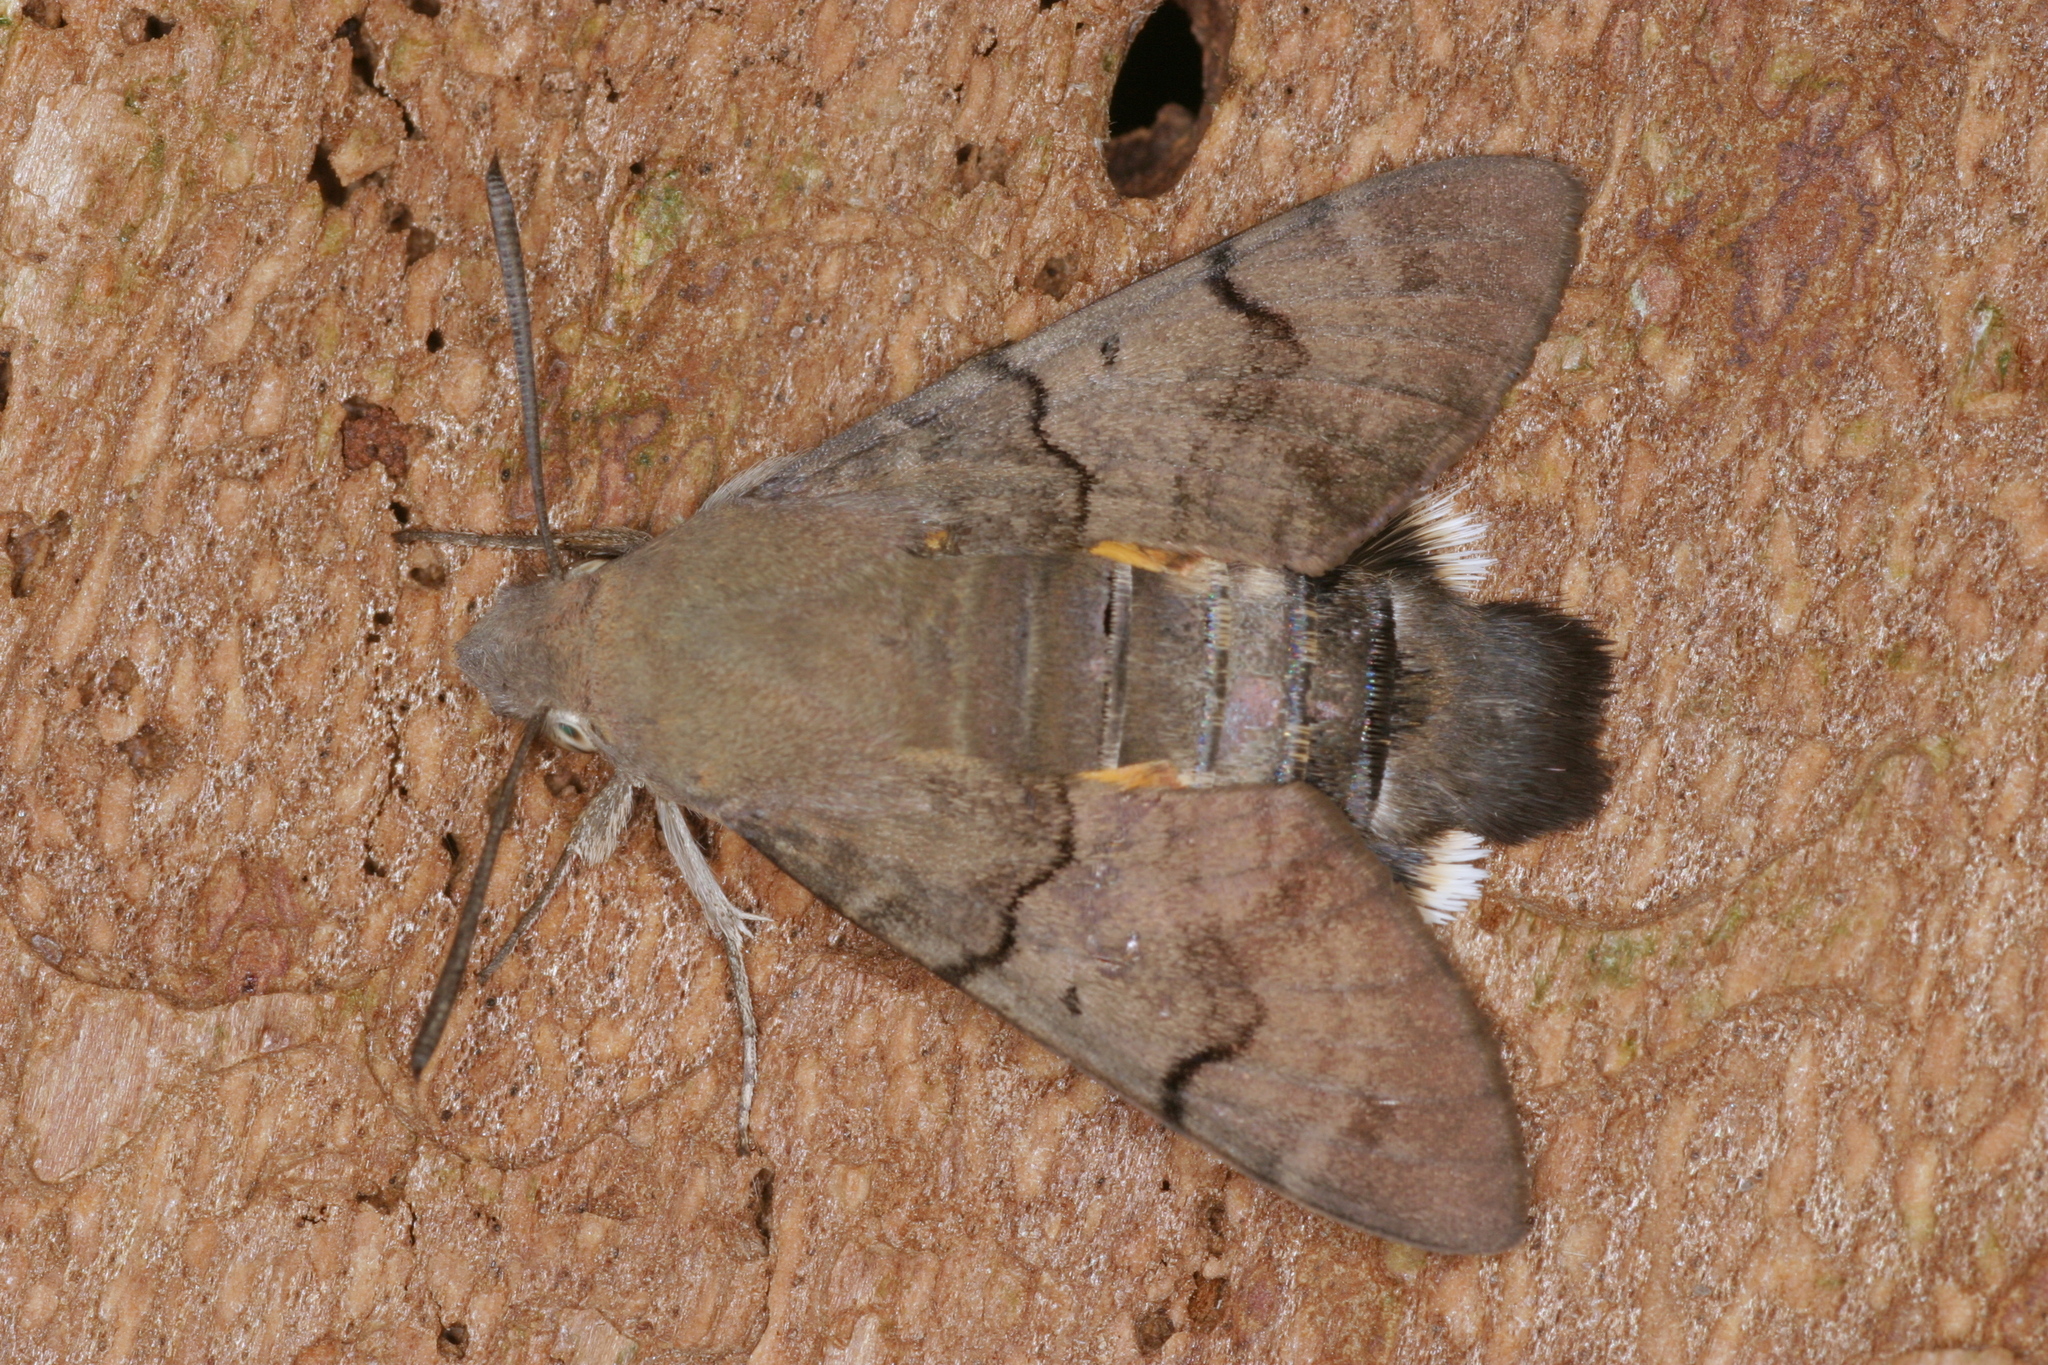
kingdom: Animalia
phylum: Arthropoda
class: Insecta
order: Lepidoptera
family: Sphingidae
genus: Macroglossum
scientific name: Macroglossum stellatarum
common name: Humming-bird hawk-moth
